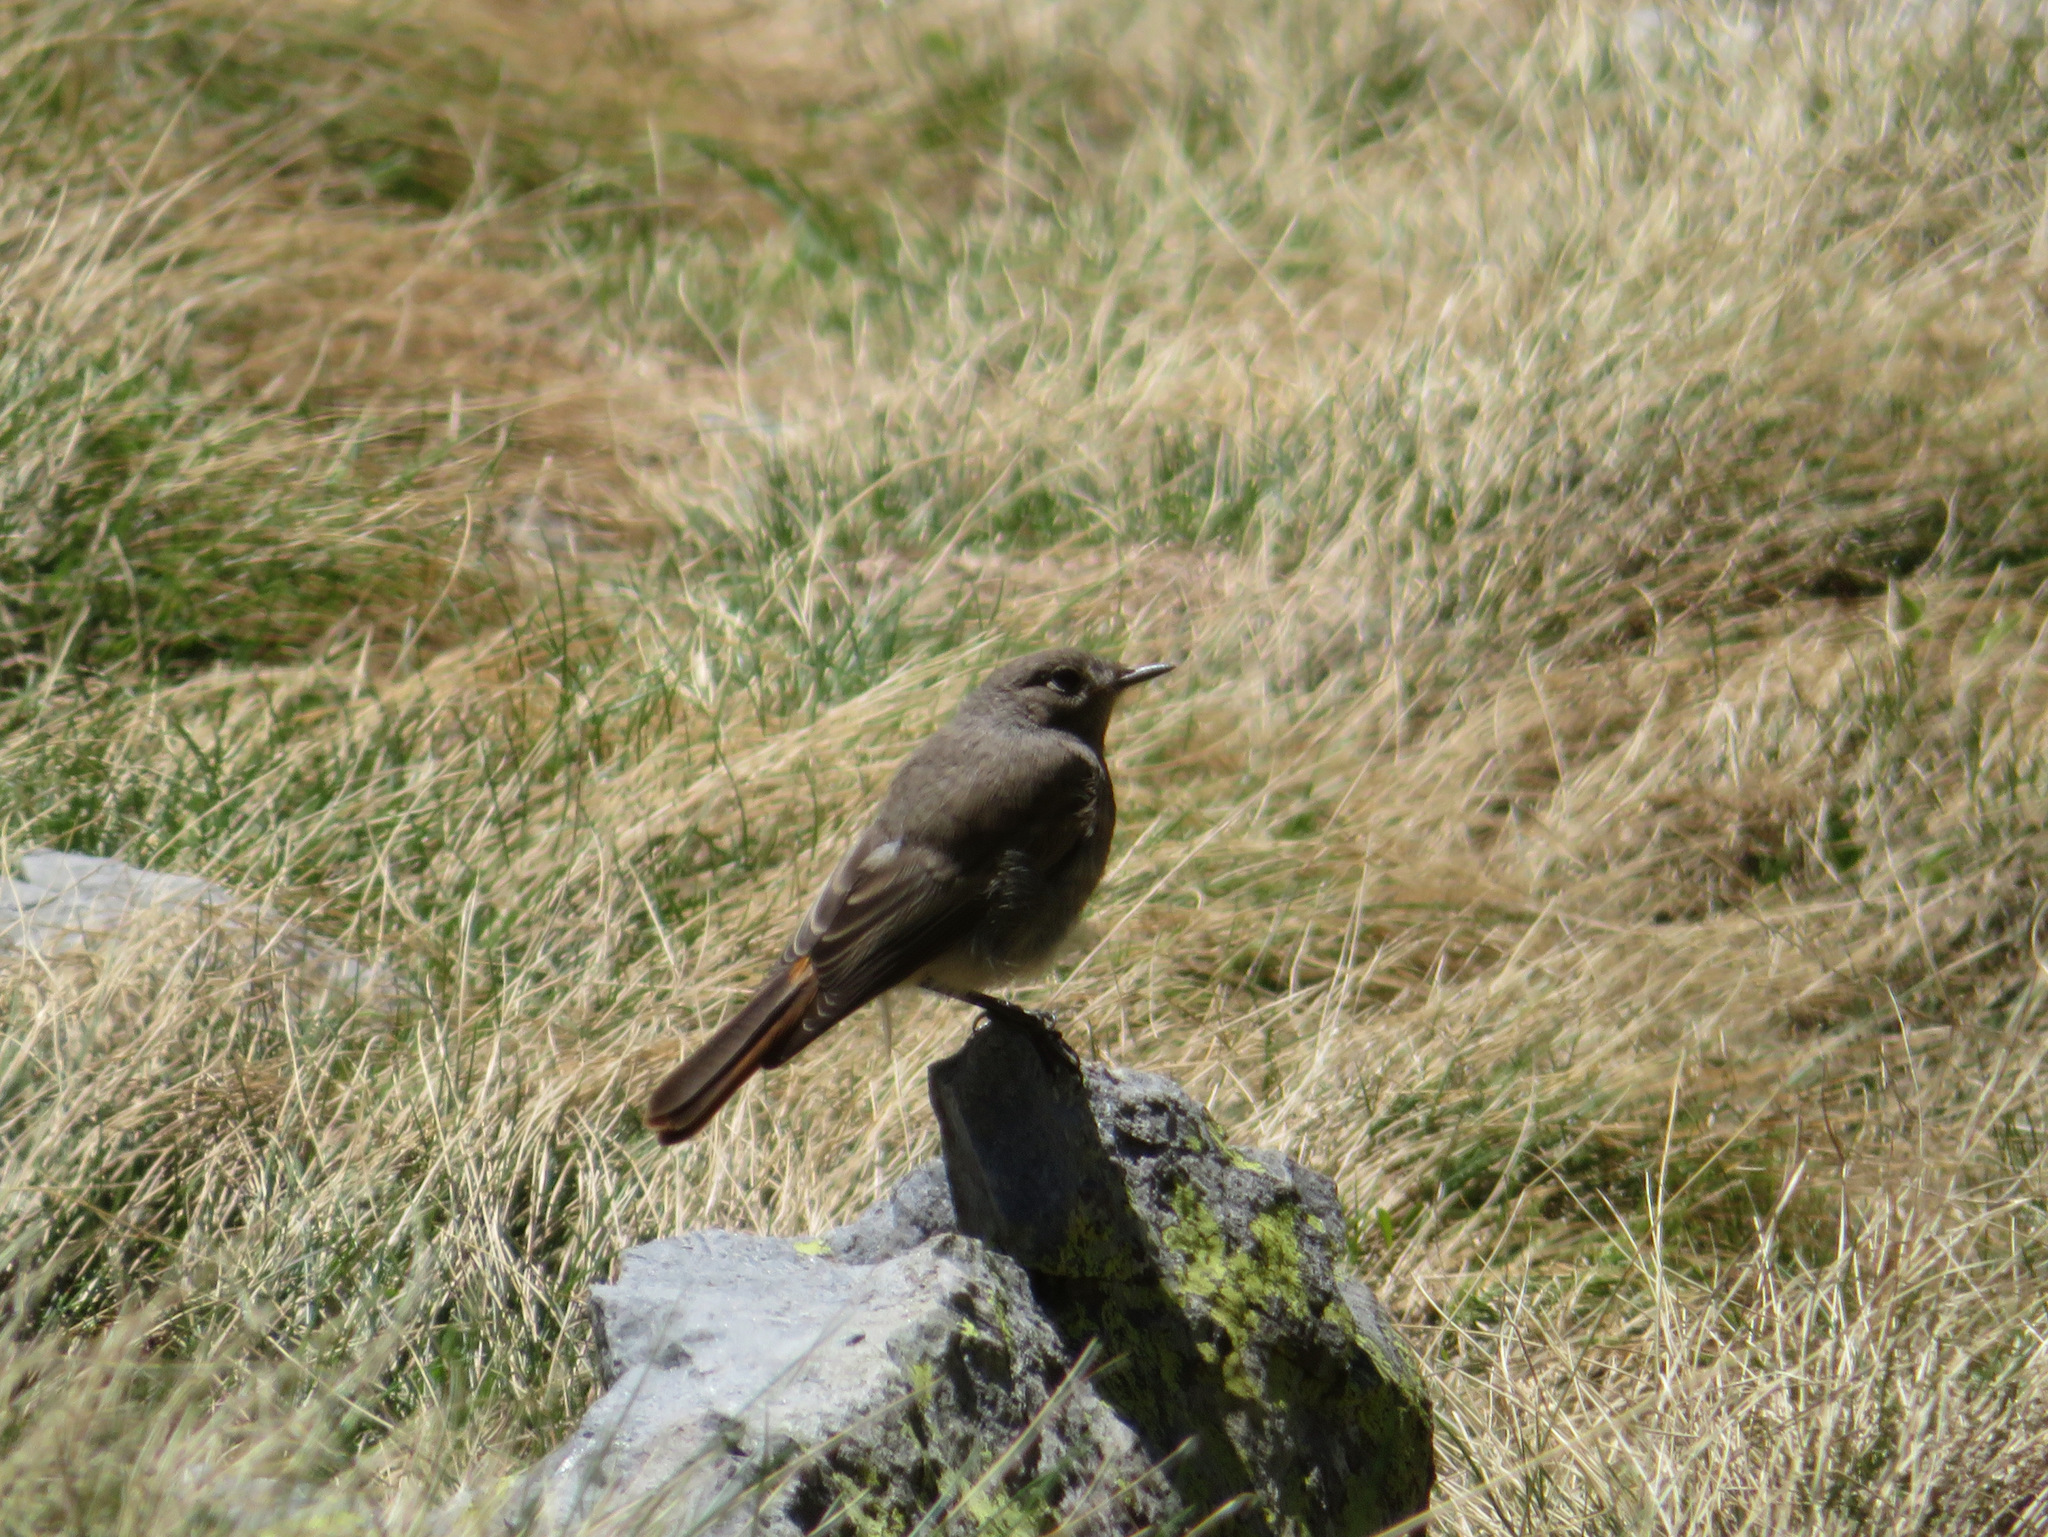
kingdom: Animalia
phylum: Chordata
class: Aves
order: Passeriformes
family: Muscicapidae
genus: Phoenicurus
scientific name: Phoenicurus ochruros
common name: Black redstart
